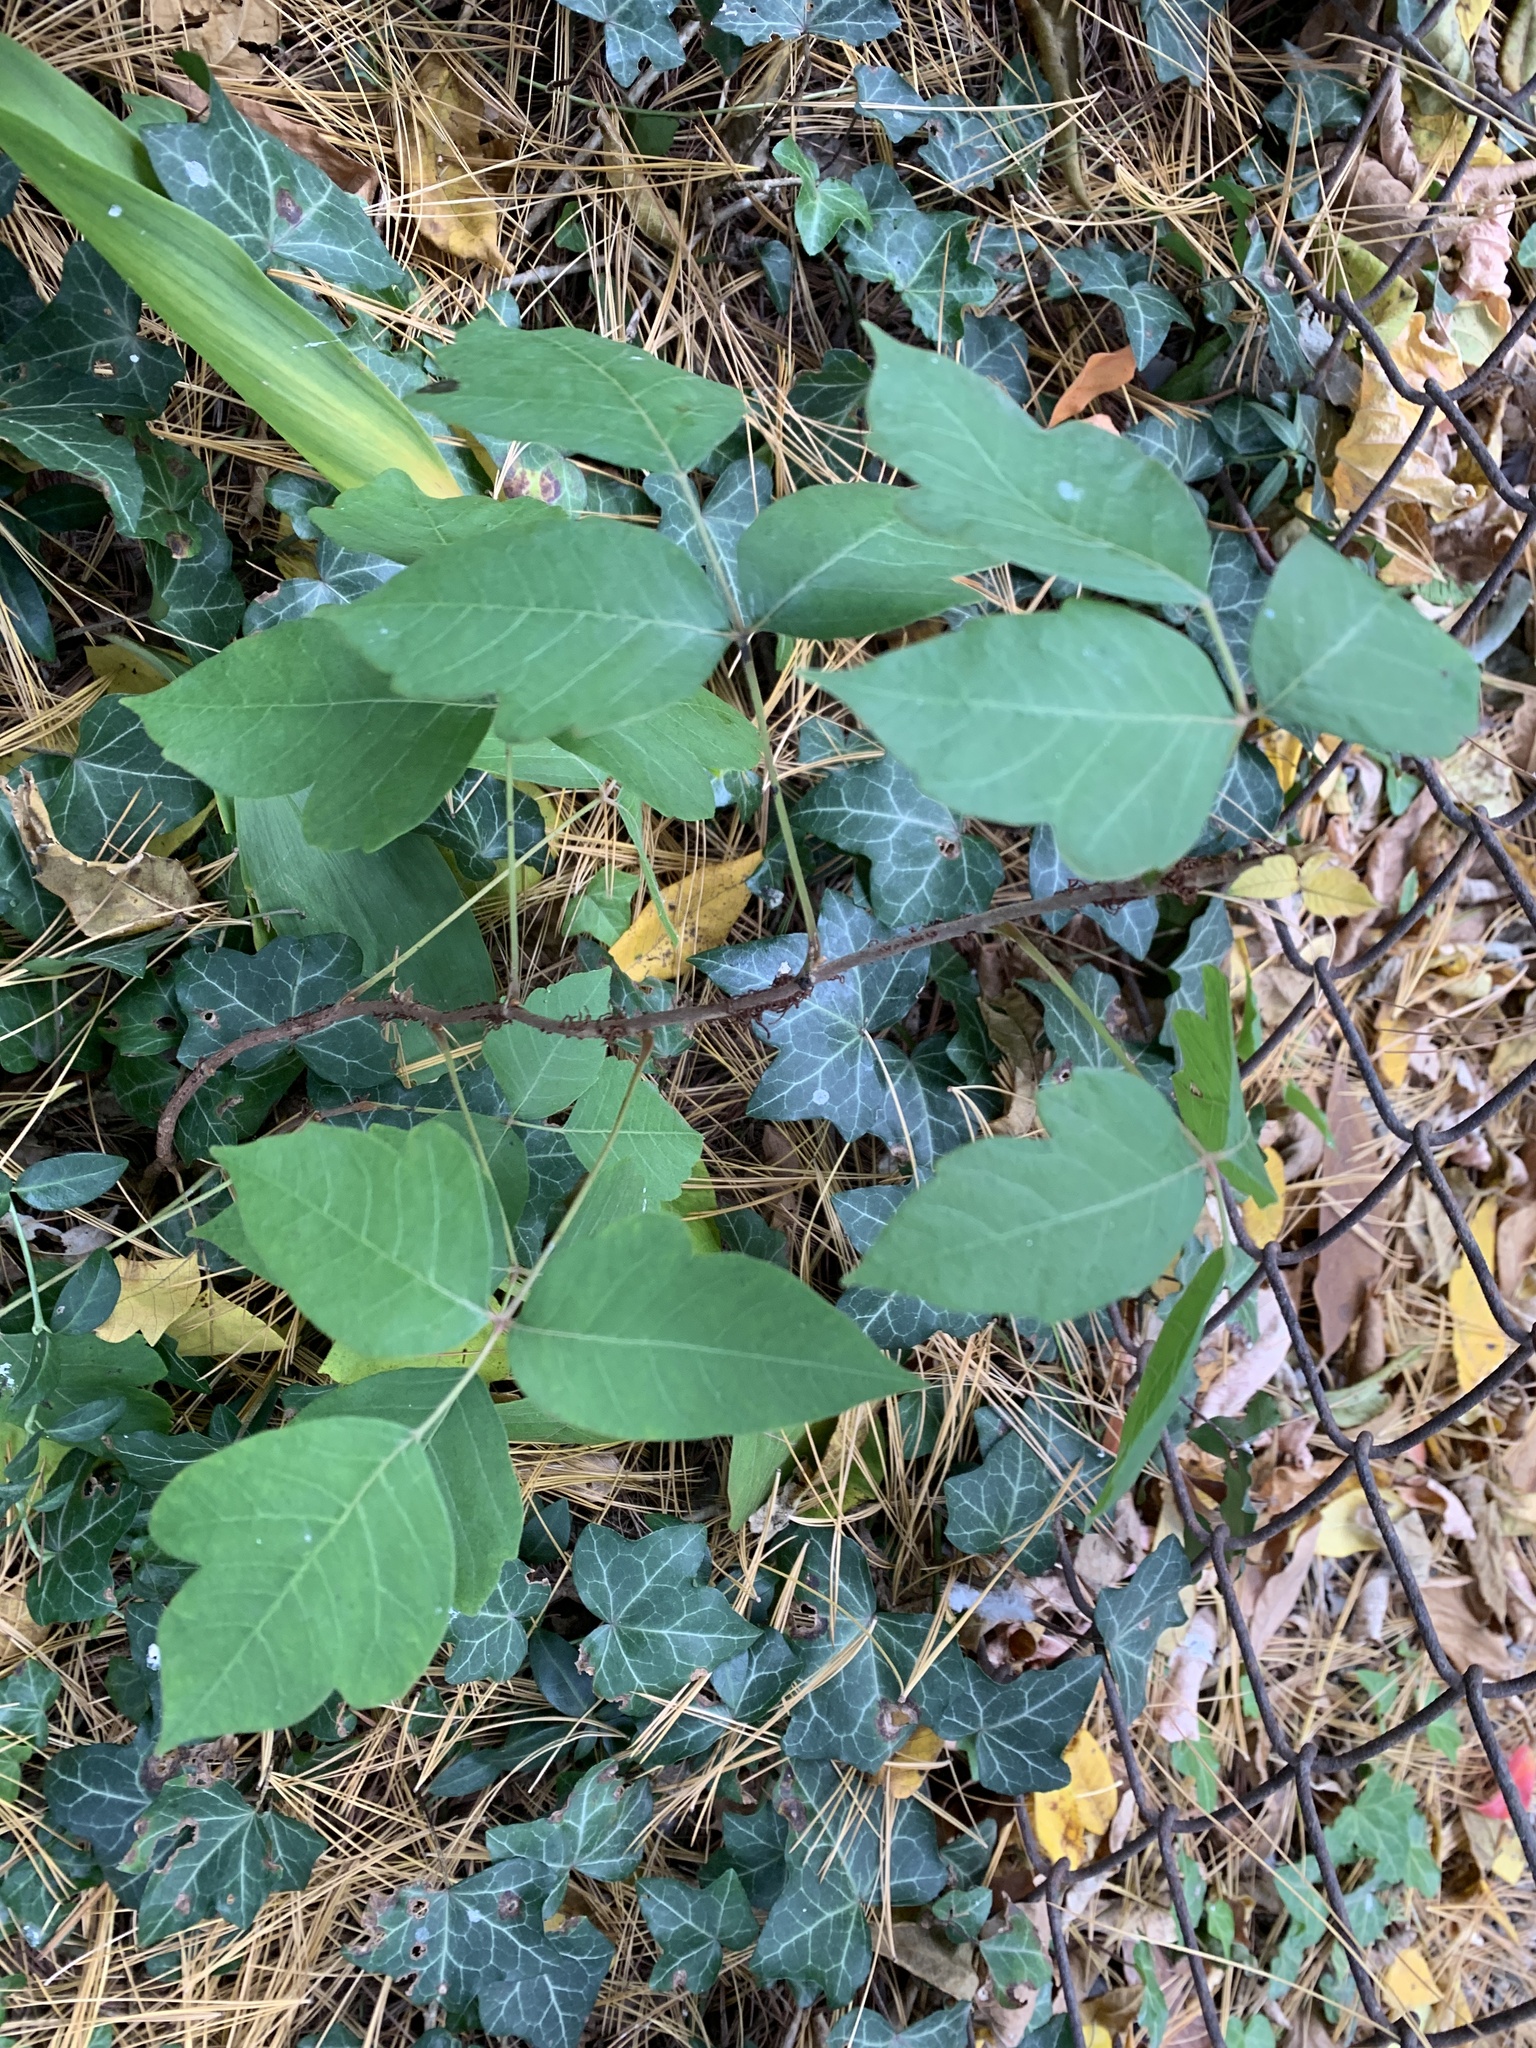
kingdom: Plantae
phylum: Tracheophyta
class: Magnoliopsida
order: Sapindales
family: Anacardiaceae
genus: Toxicodendron
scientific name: Toxicodendron radicans
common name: Poison ivy
